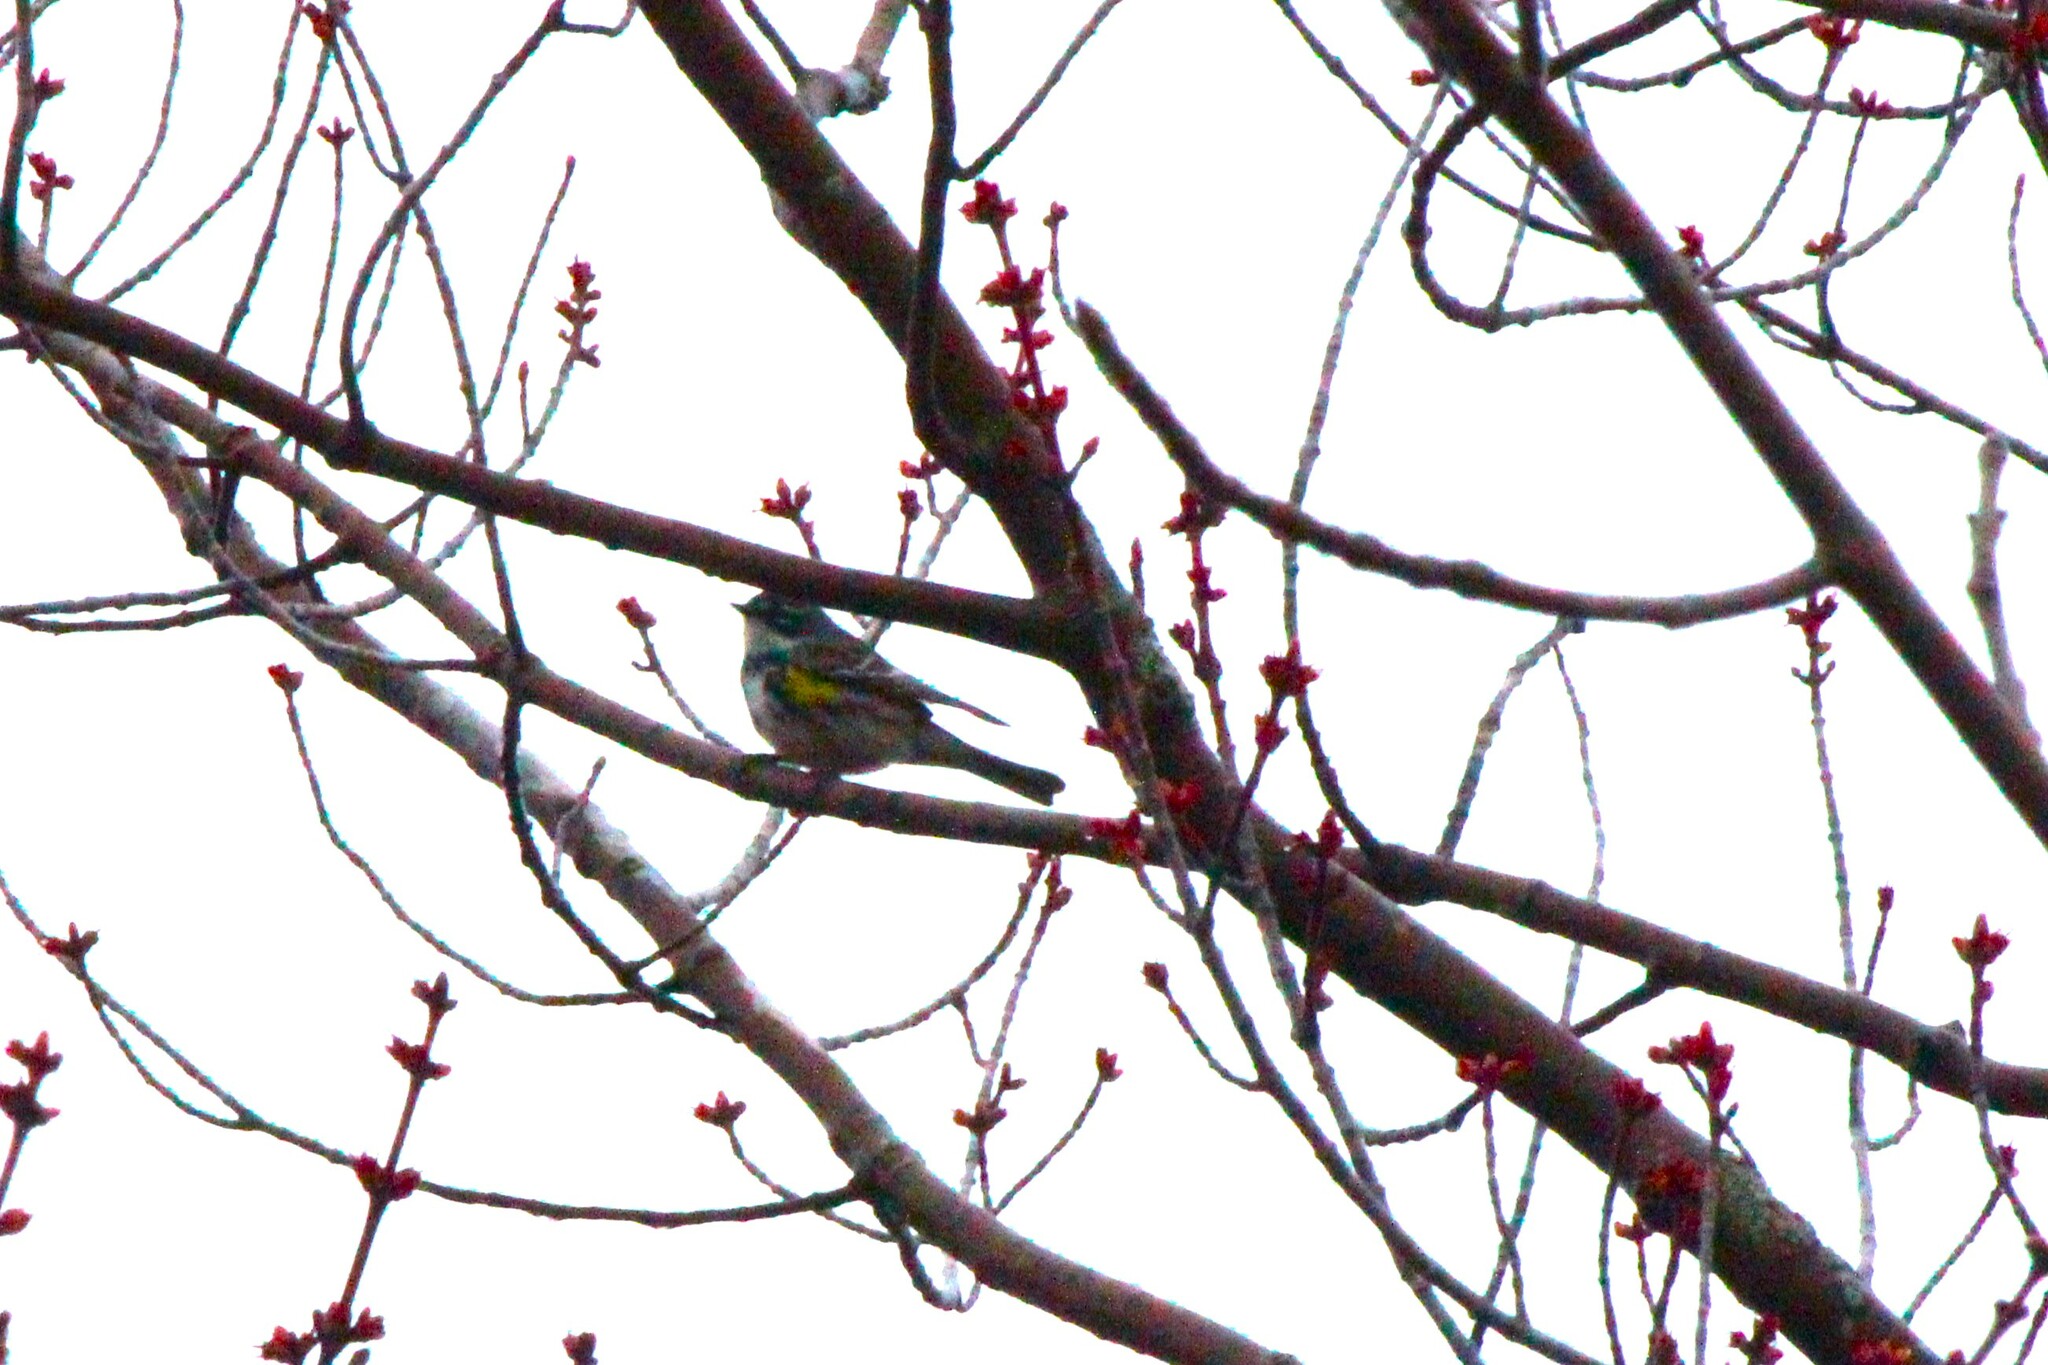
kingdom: Animalia
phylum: Chordata
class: Aves
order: Passeriformes
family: Parulidae
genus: Setophaga
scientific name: Setophaga coronata
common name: Myrtle warbler
